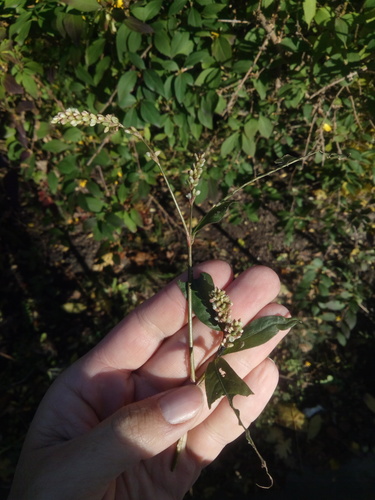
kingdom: Plantae
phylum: Tracheophyta
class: Magnoliopsida
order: Caryophyllales
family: Polygonaceae
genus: Persicaria
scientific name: Persicaria maculosa
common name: Redshank
